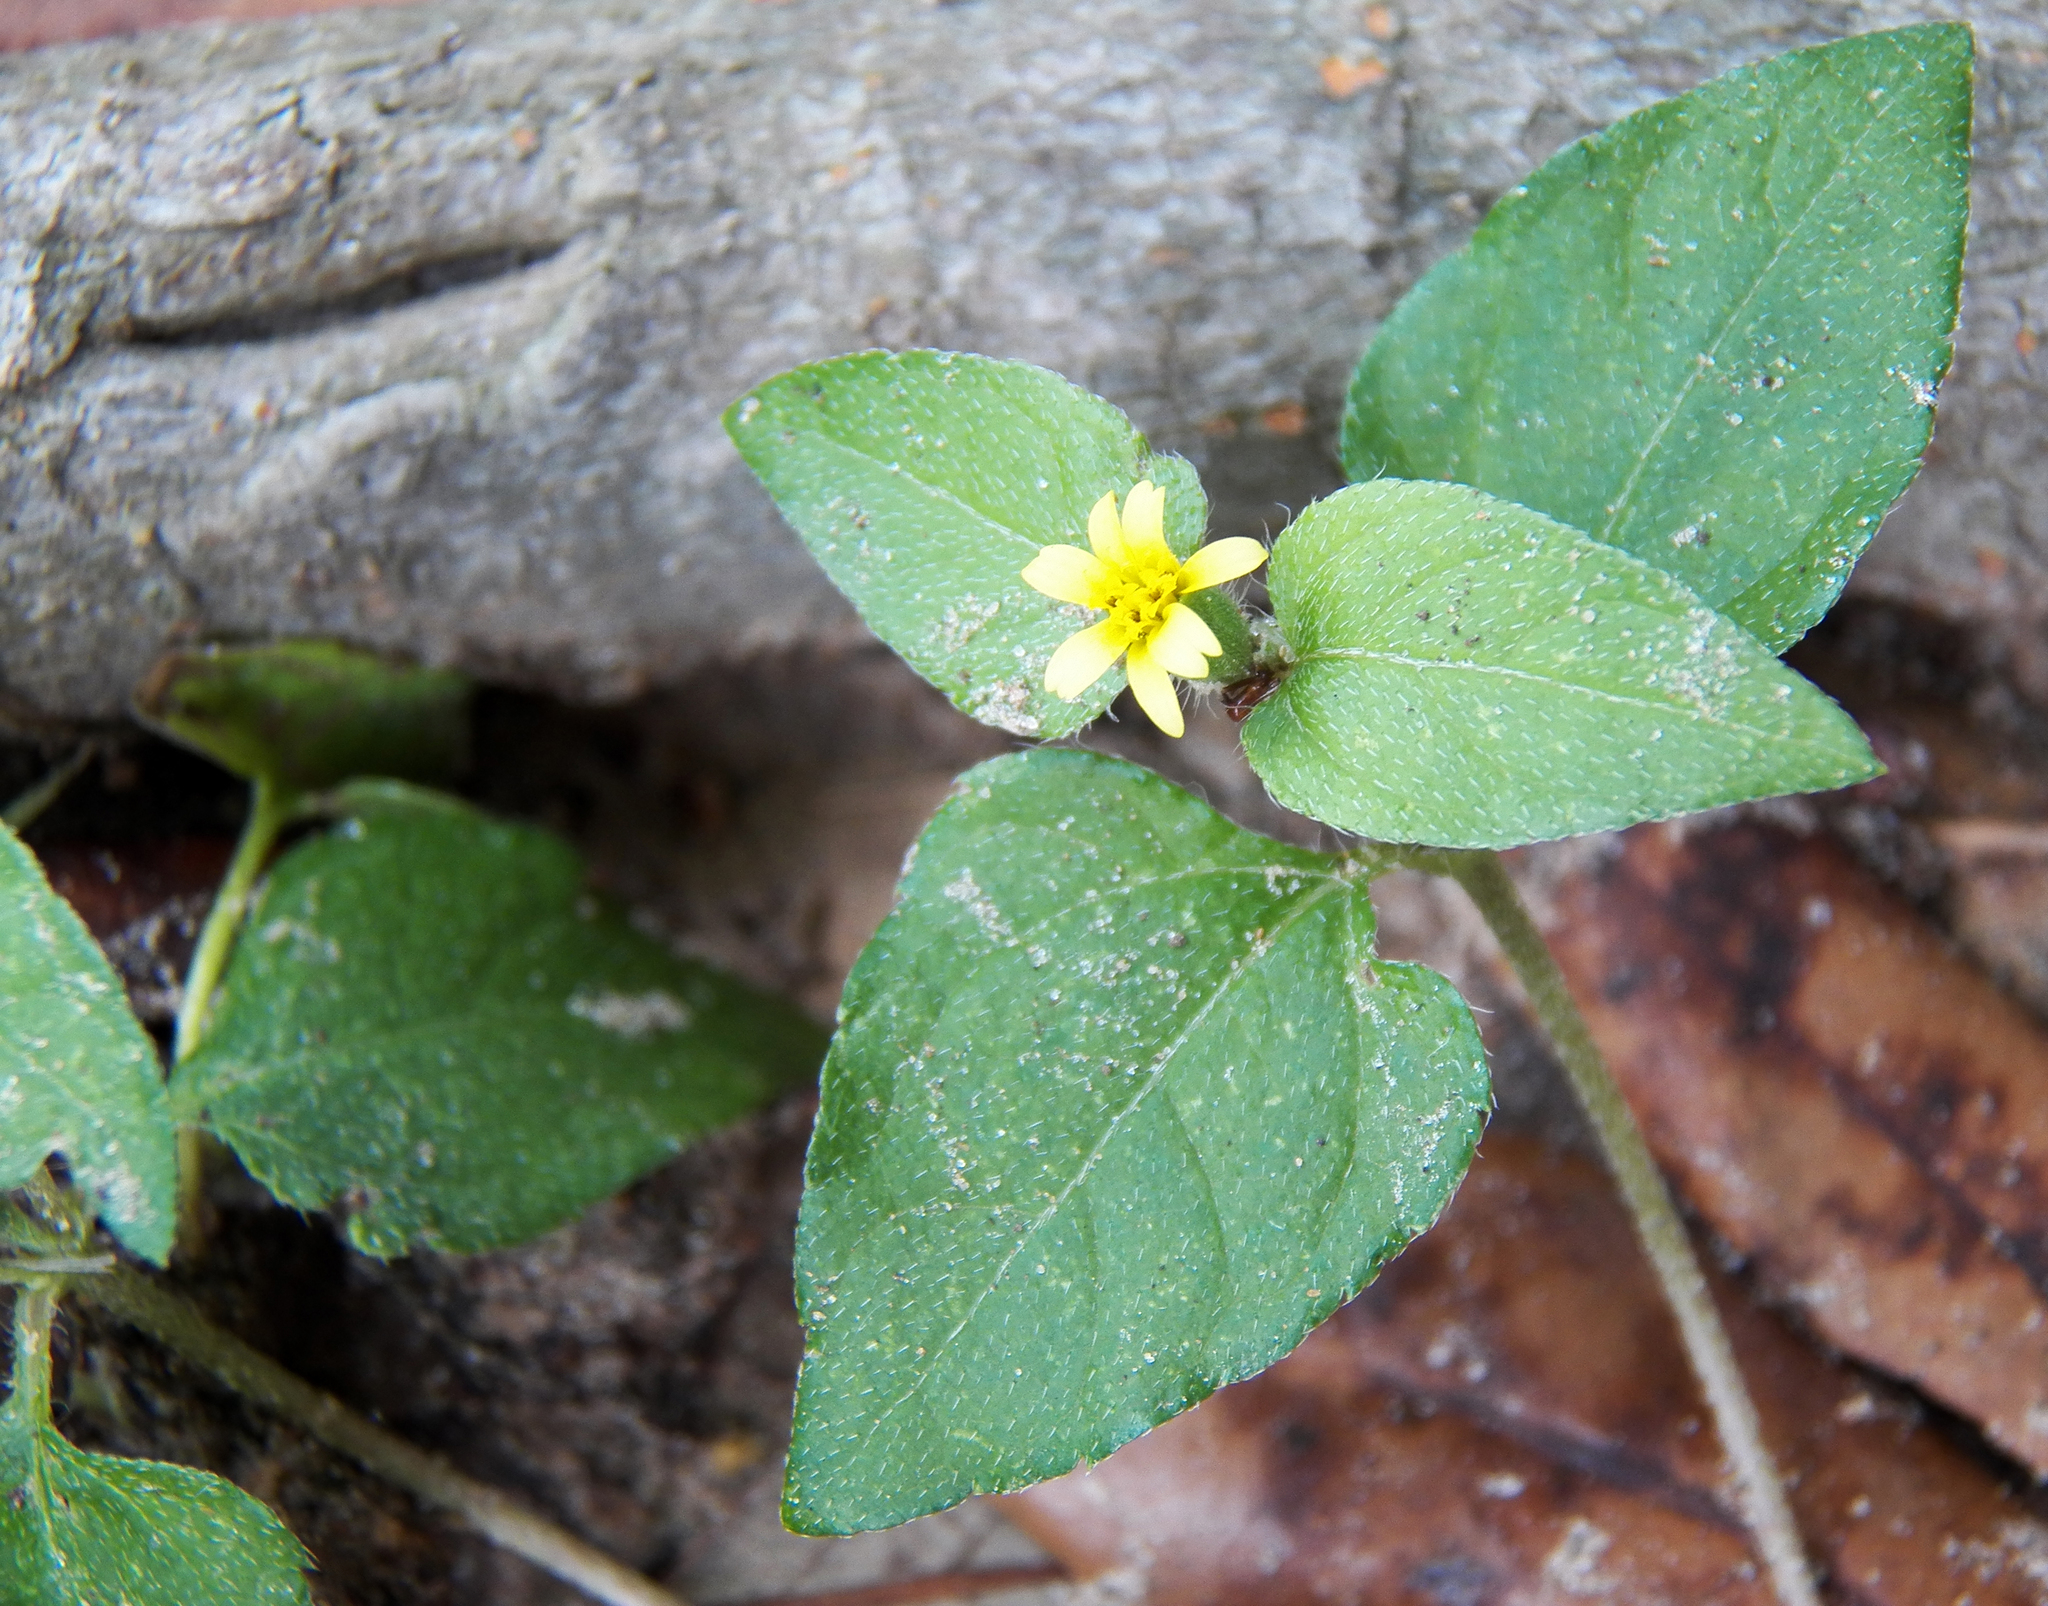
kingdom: Plantae
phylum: Tracheophyta
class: Magnoliopsida
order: Asterales
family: Asteraceae
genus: Calyptocarpus
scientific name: Calyptocarpus vialis
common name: Straggler daisy
